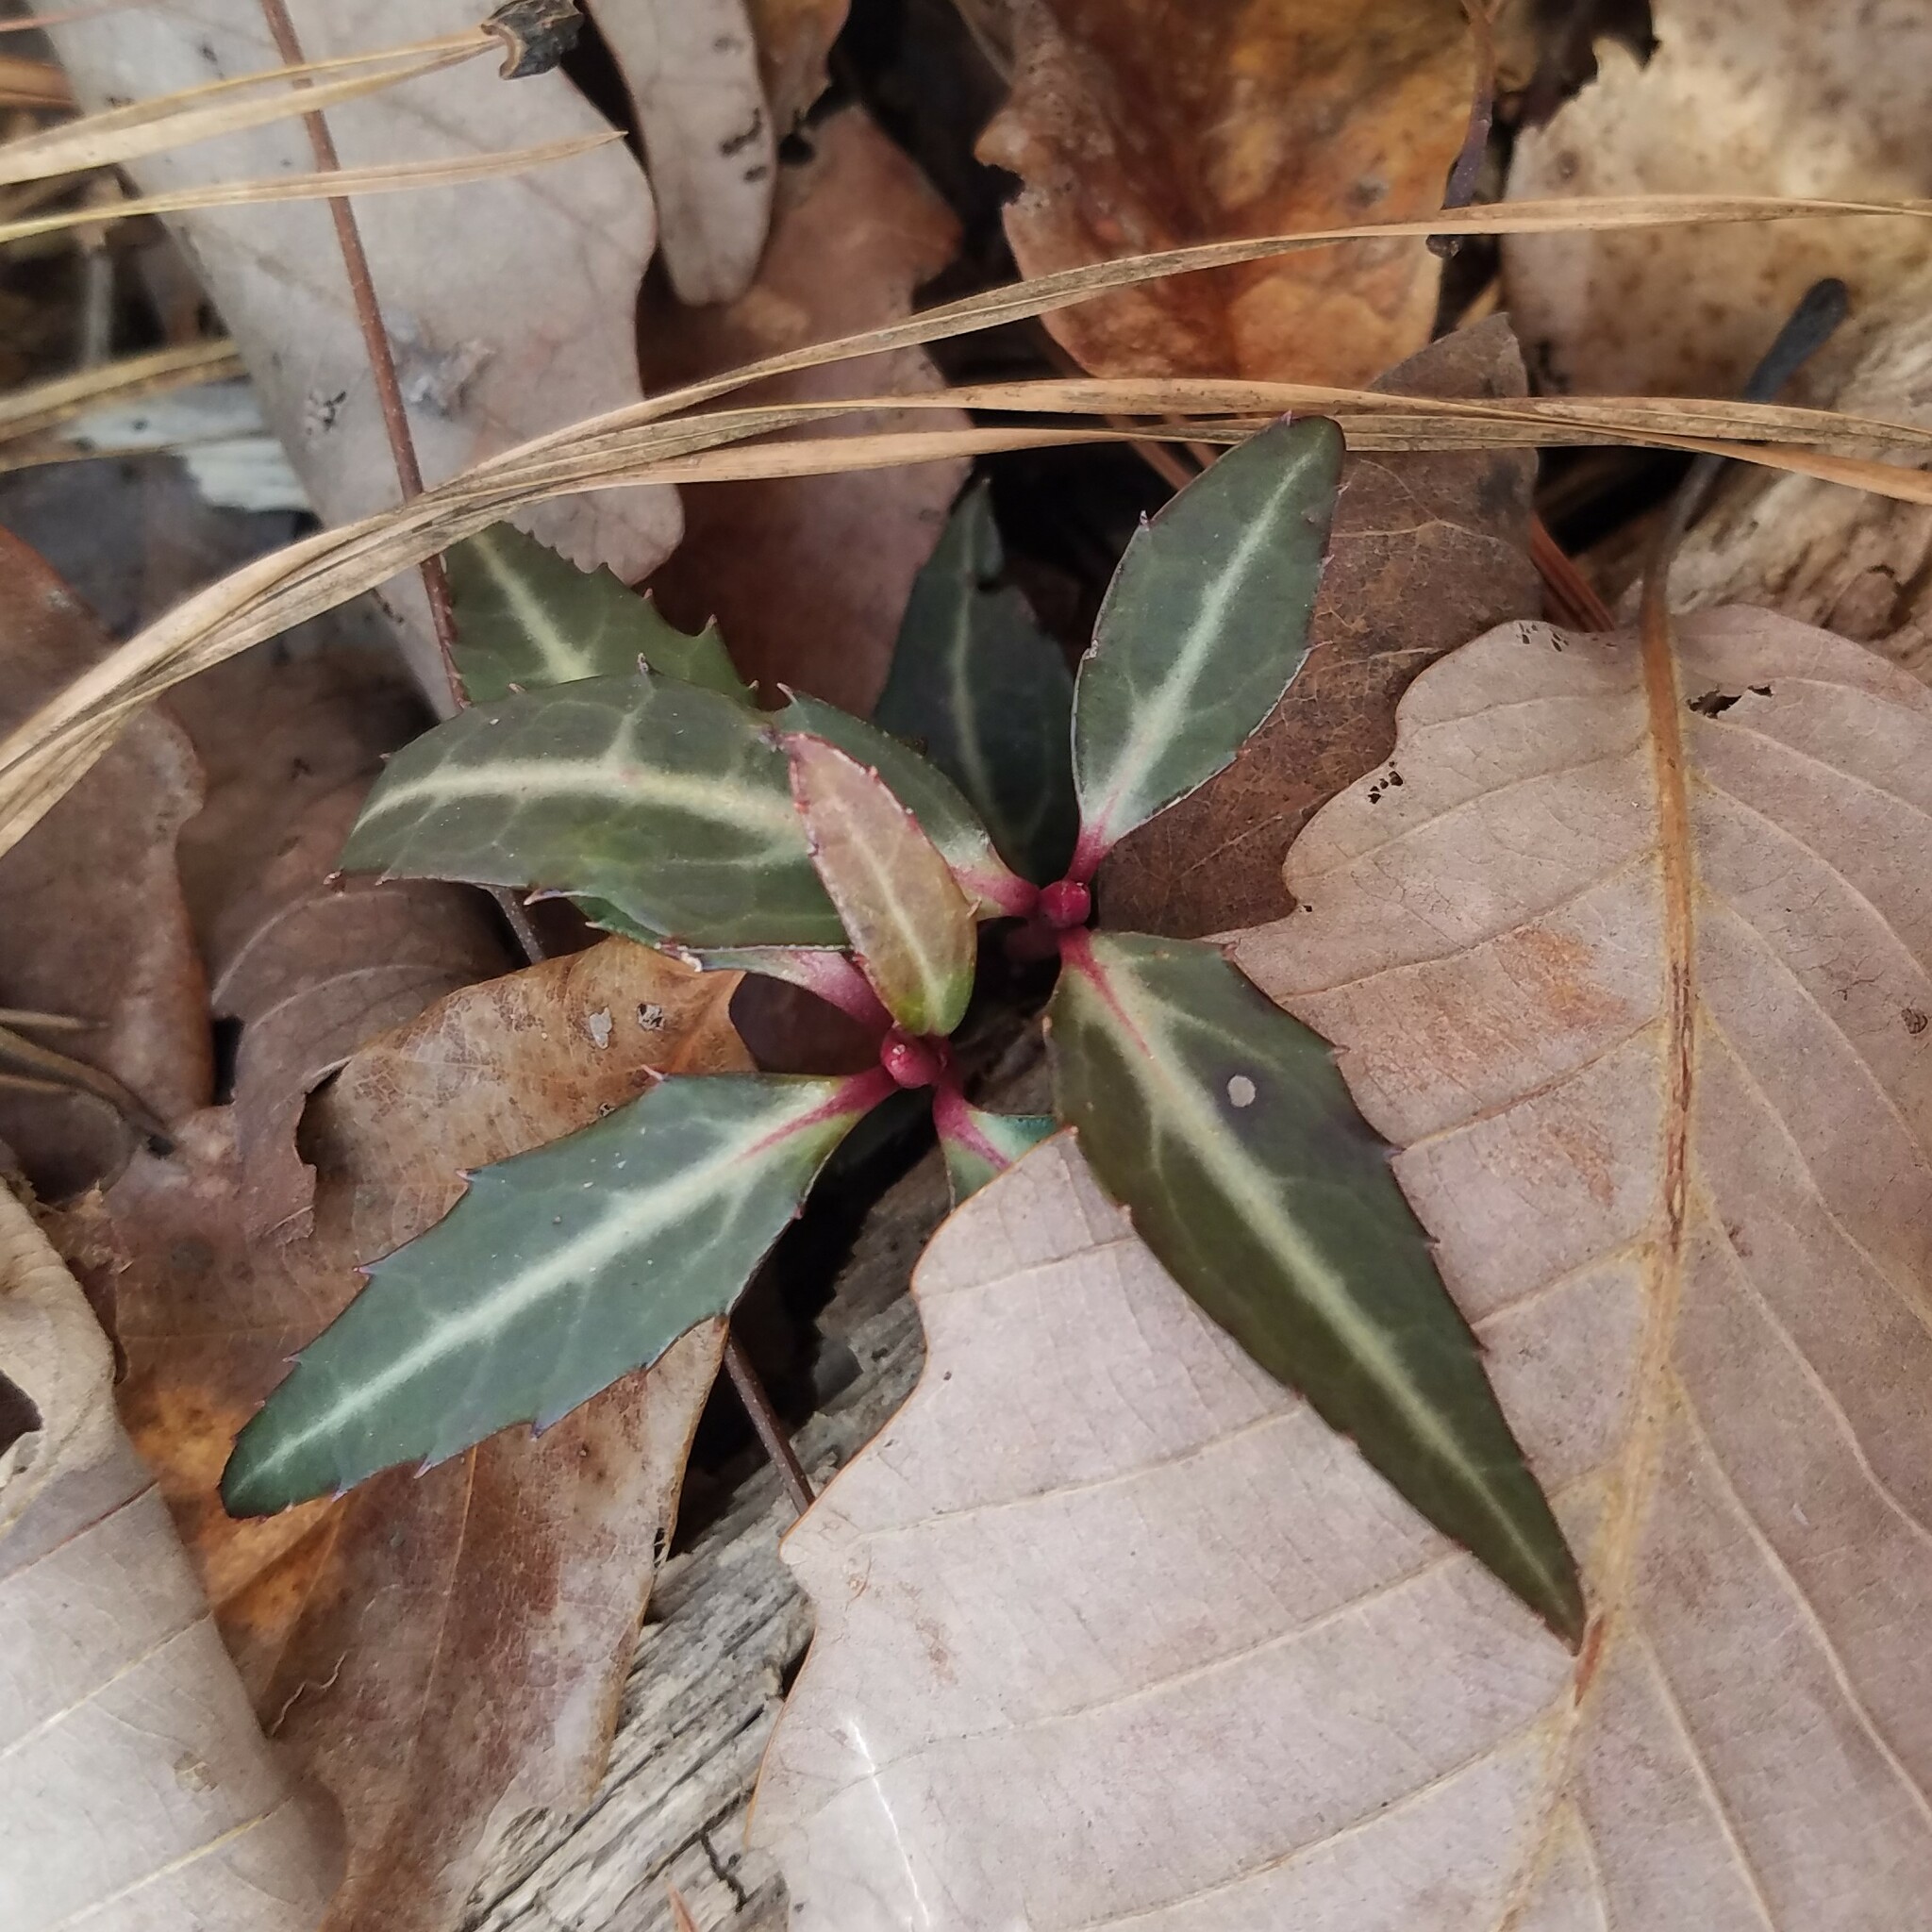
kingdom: Plantae
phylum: Tracheophyta
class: Magnoliopsida
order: Ericales
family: Ericaceae
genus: Chimaphila
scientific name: Chimaphila maculata
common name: Spotted pipsissewa
